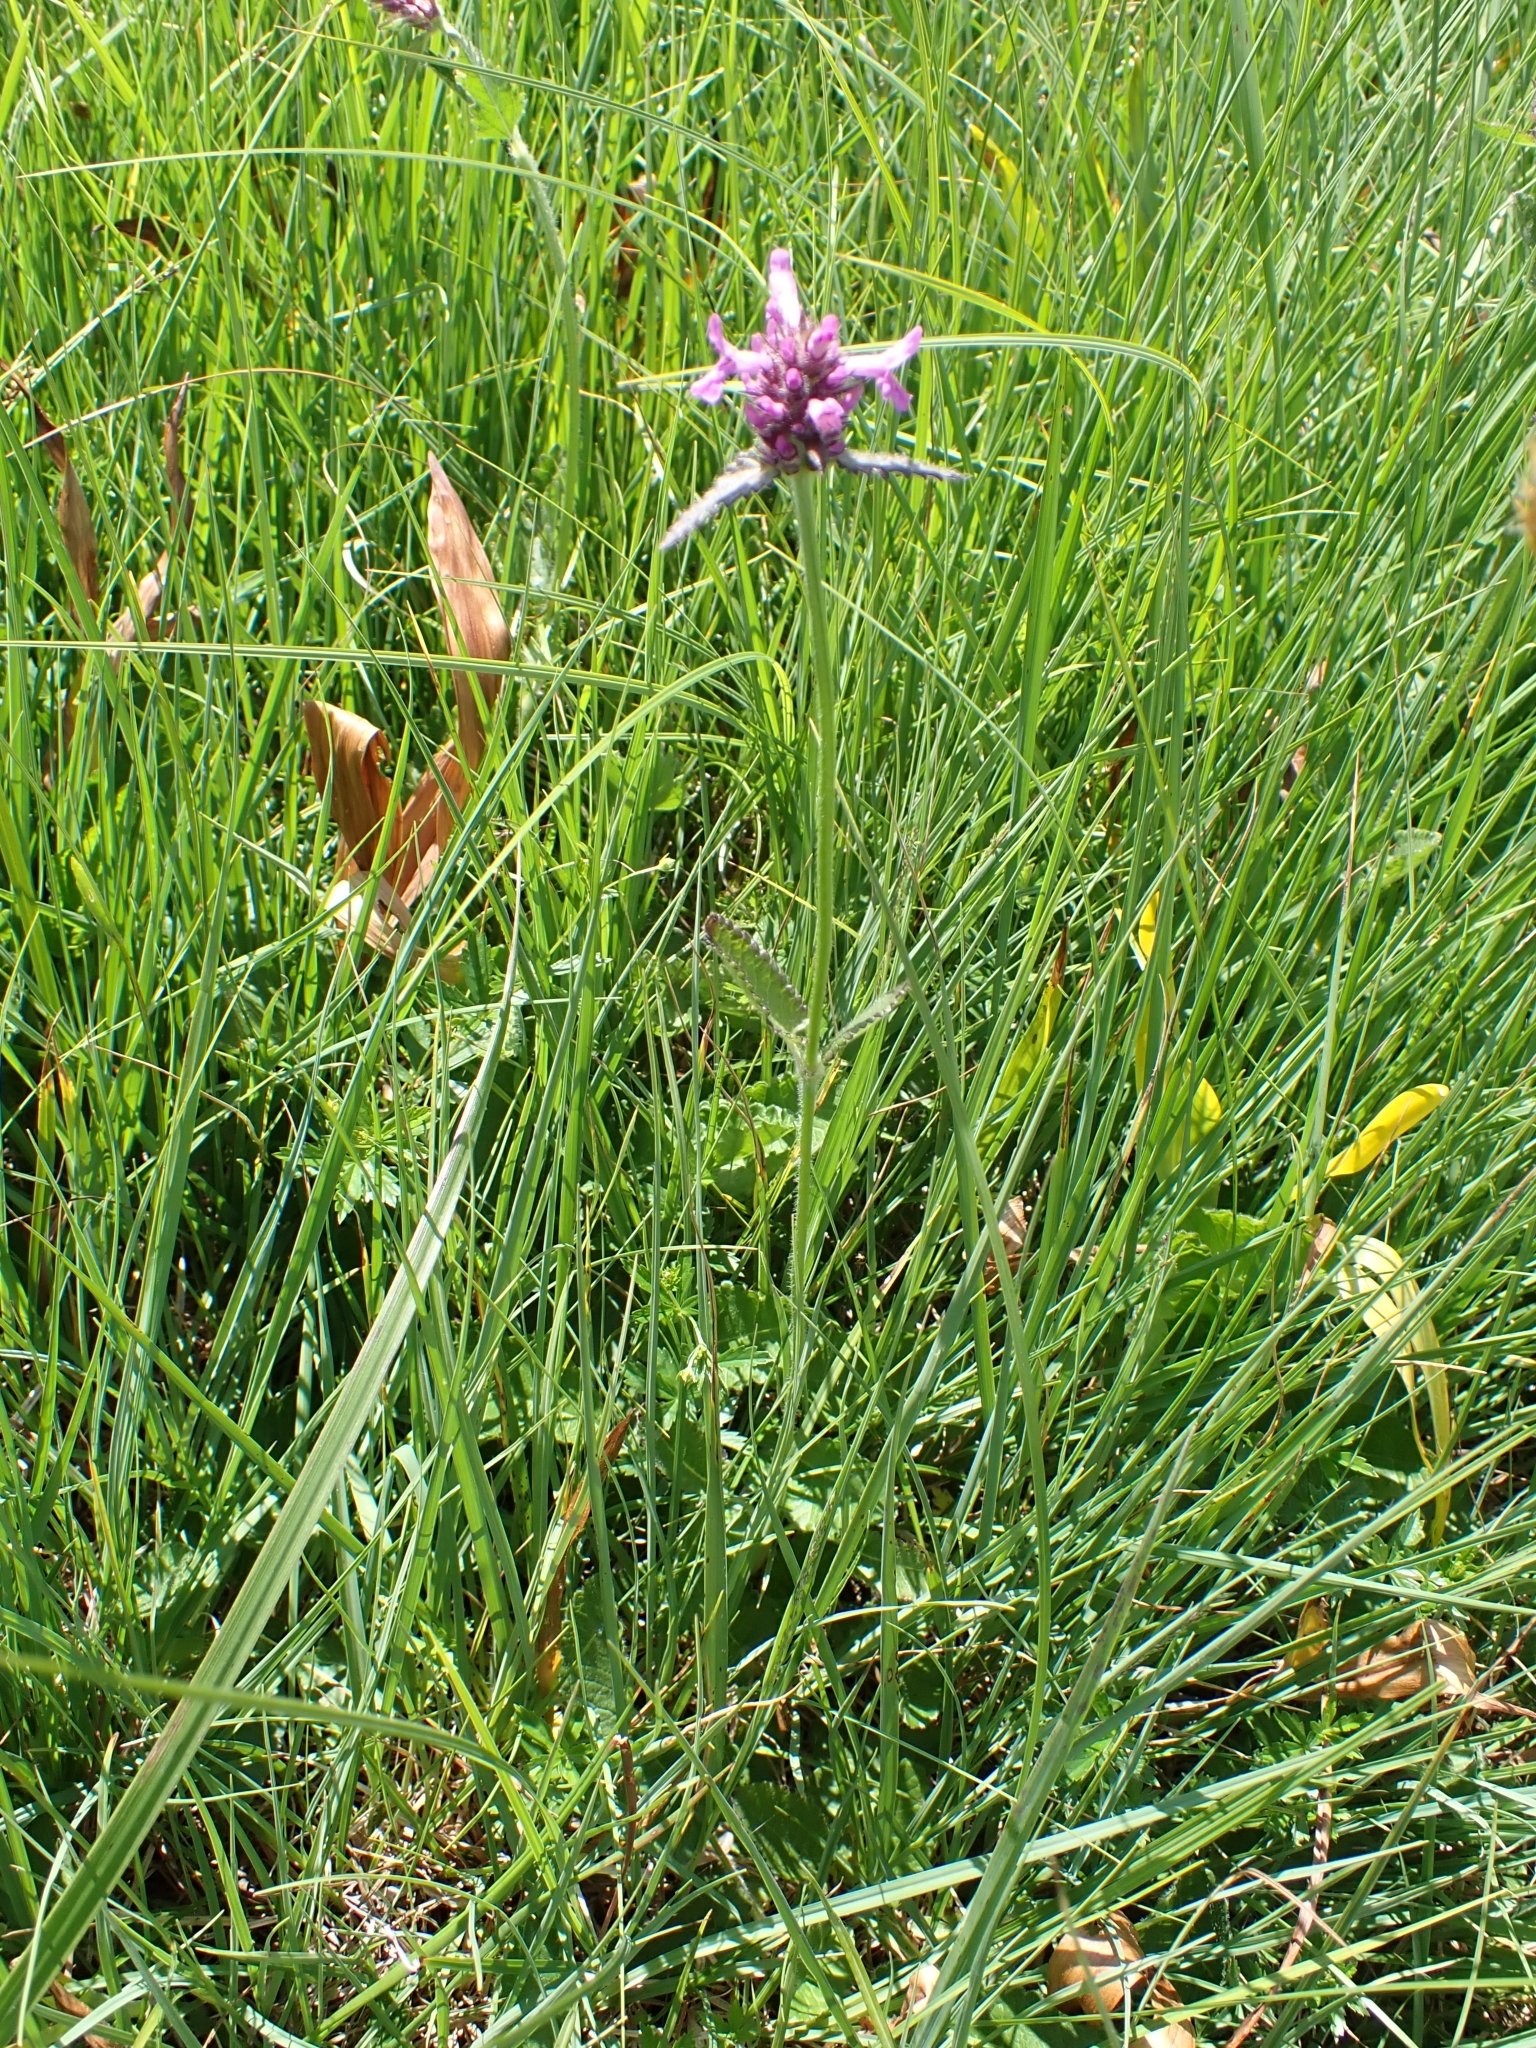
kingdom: Plantae
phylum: Tracheophyta
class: Magnoliopsida
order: Lamiales
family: Lamiaceae
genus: Betonica
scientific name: Betonica officinalis
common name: Bishop's-wort
